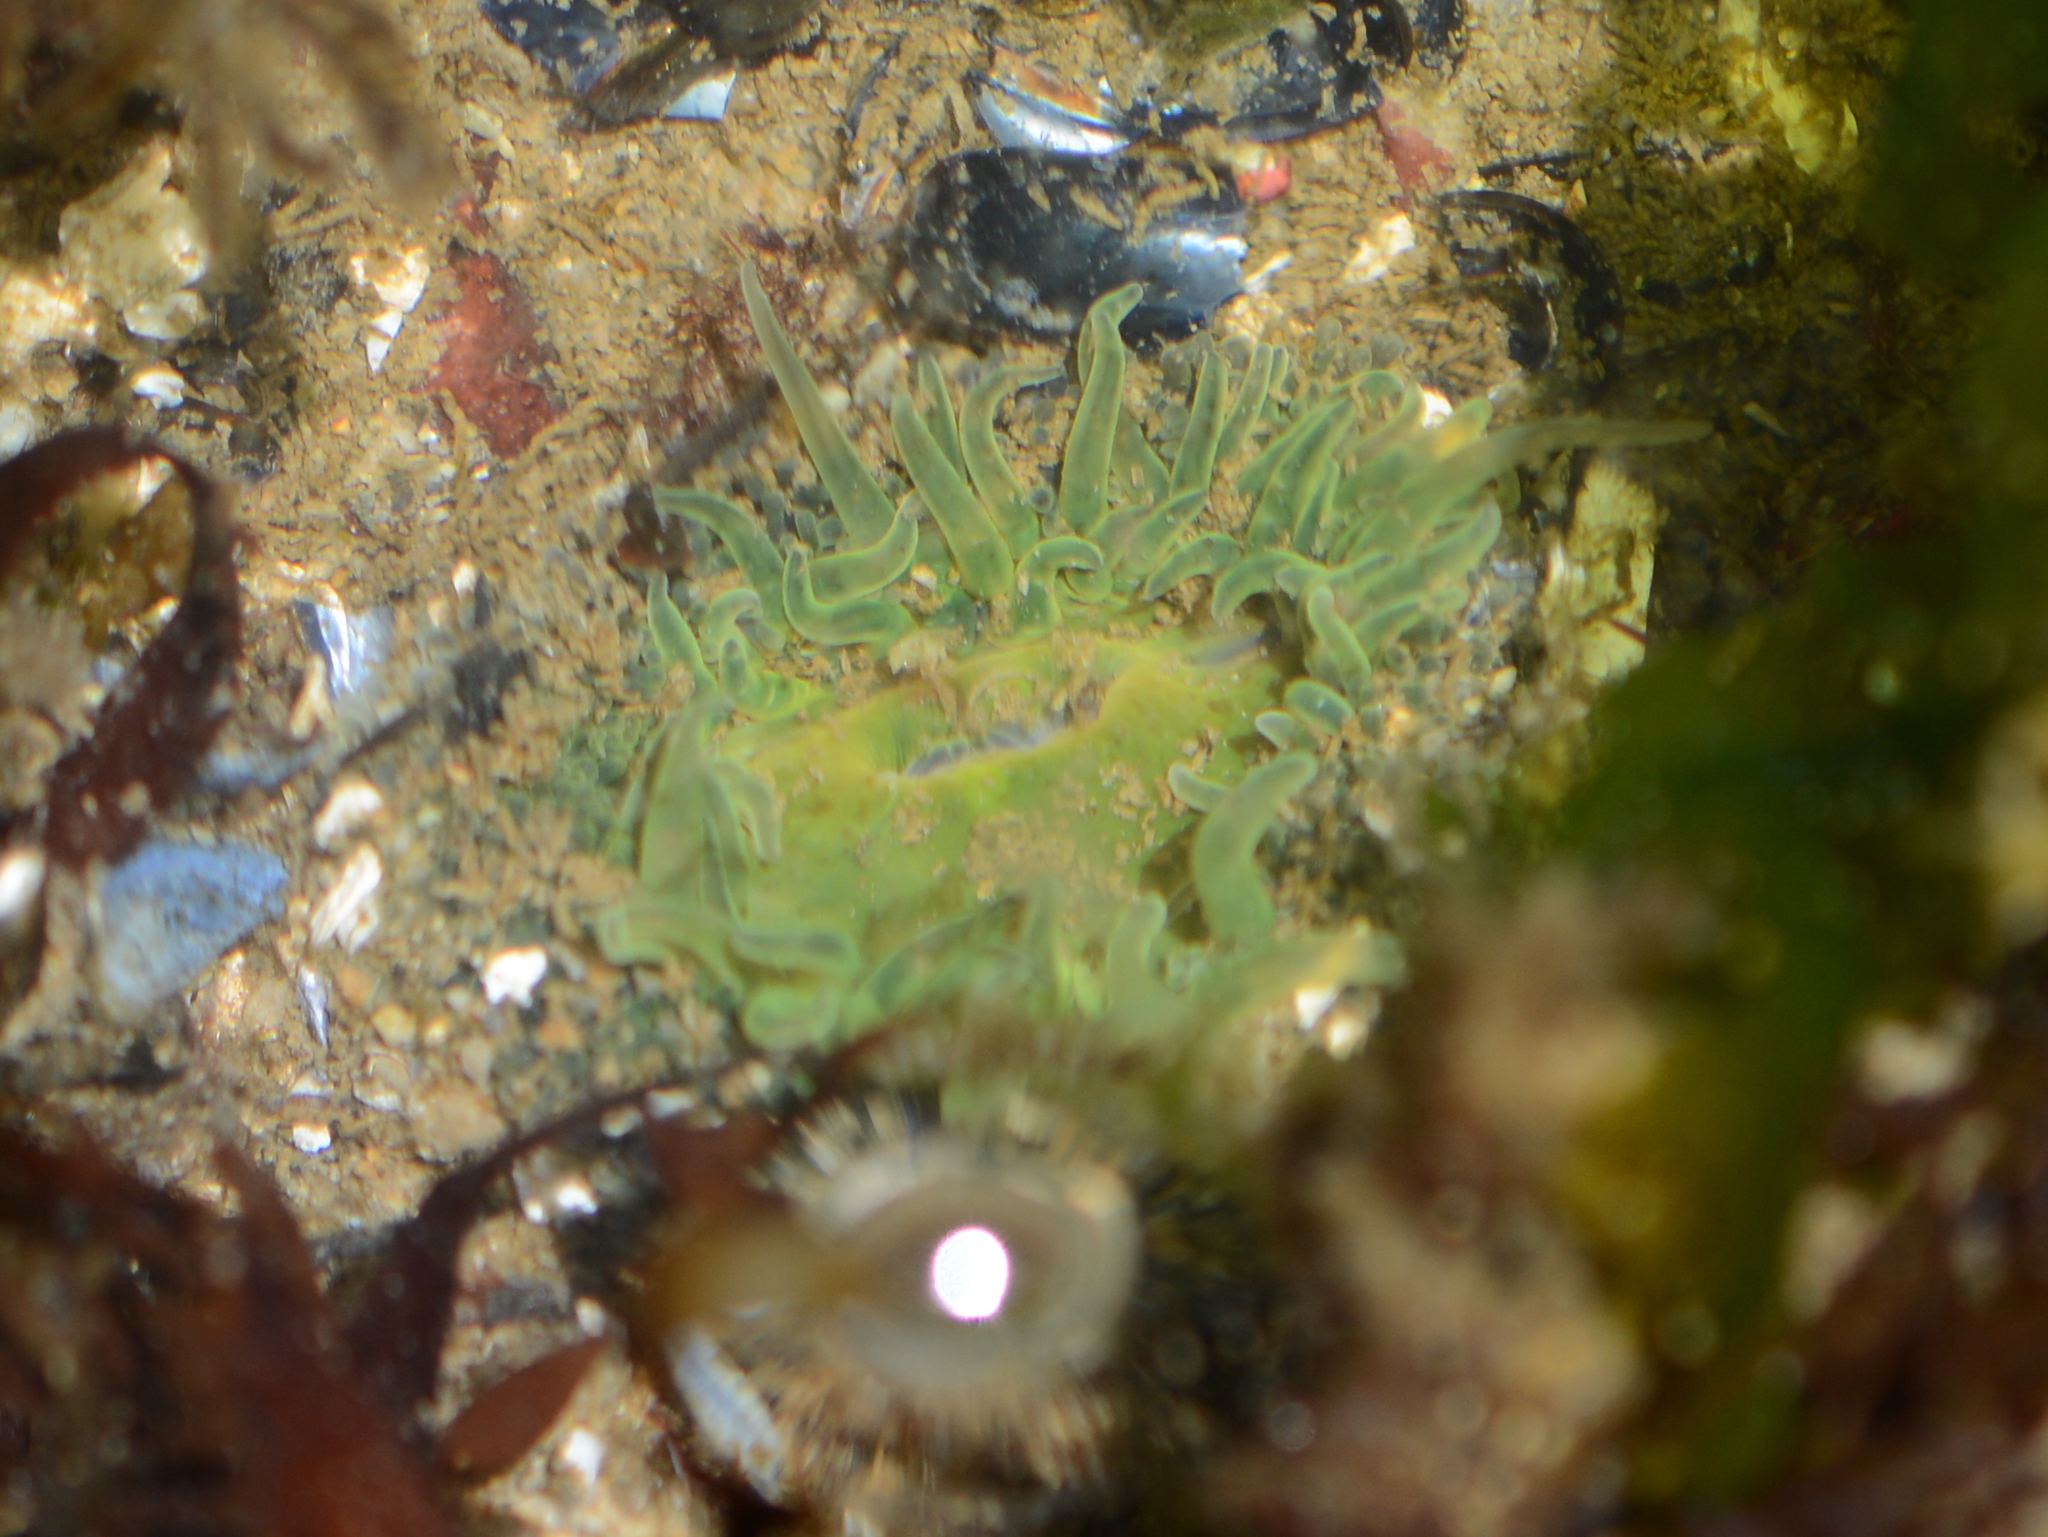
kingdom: Animalia
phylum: Cnidaria
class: Anthozoa
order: Actiniaria
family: Actiniidae
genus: Anthopleura
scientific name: Anthopleura artemisia
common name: Buried sea anemone
